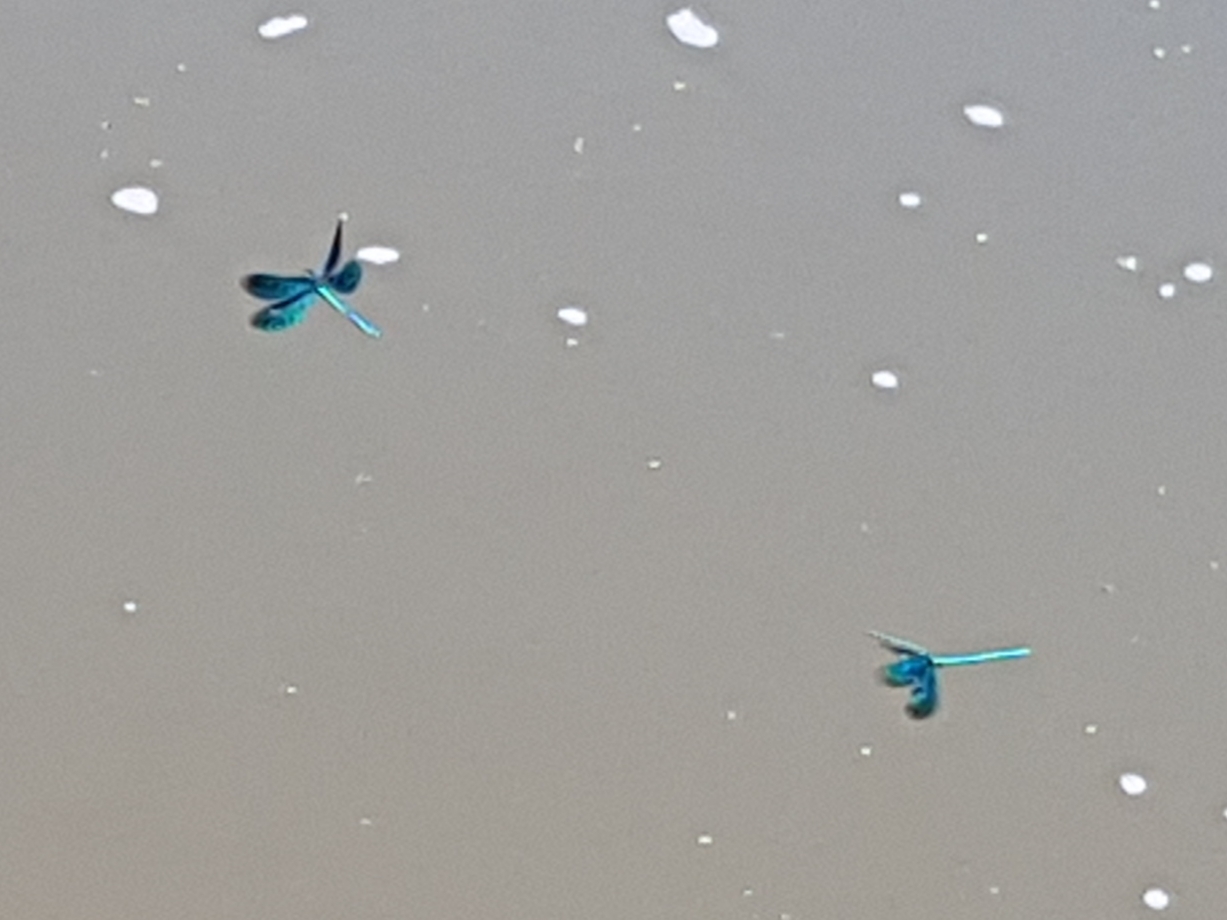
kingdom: Animalia
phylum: Arthropoda
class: Insecta
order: Odonata
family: Calopterygidae
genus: Calopteryx
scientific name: Calopteryx virgo
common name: Beautiful demoiselle
